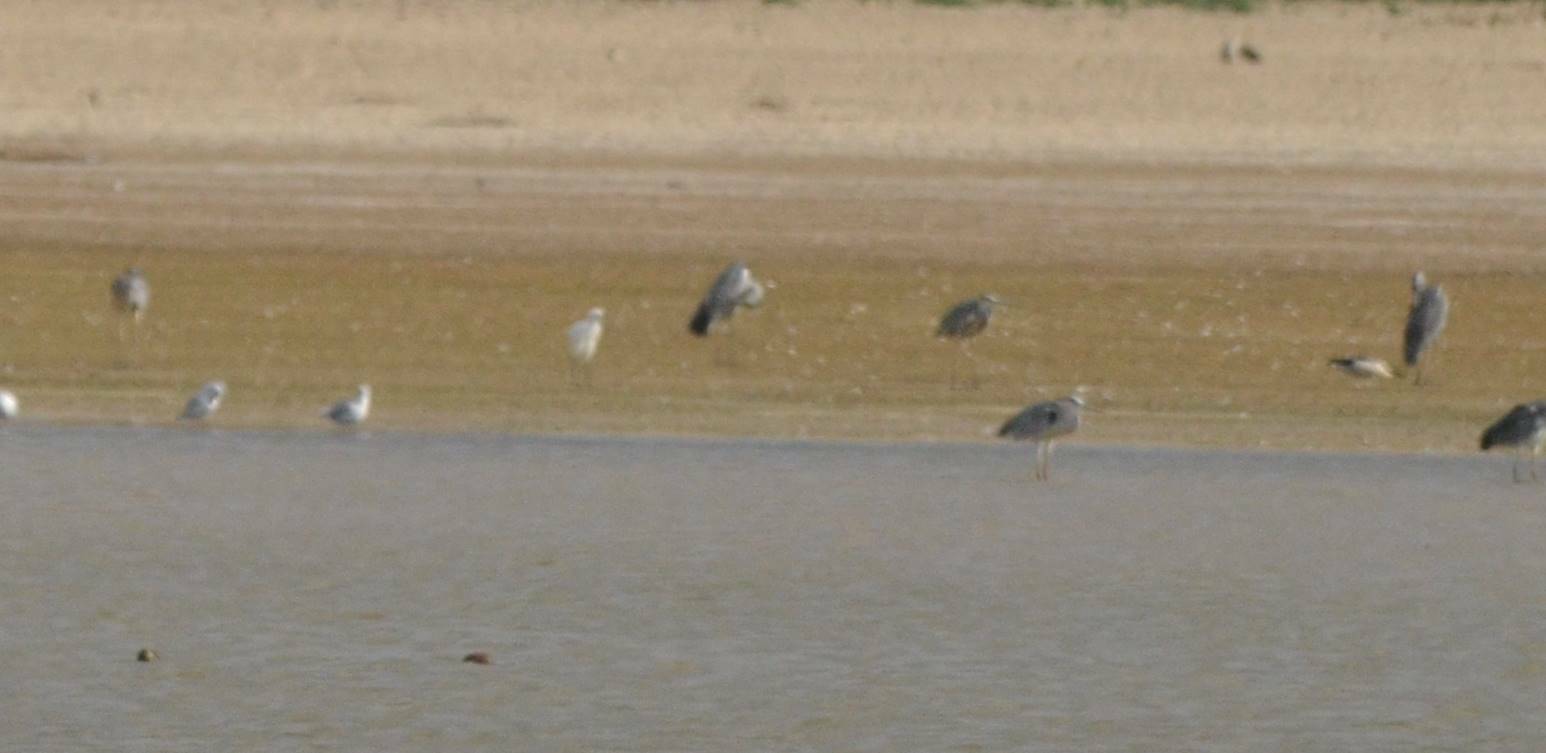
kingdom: Animalia
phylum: Chordata
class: Aves
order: Pelecaniformes
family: Ardeidae
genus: Ardea
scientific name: Ardea cinerea
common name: Grey heron
